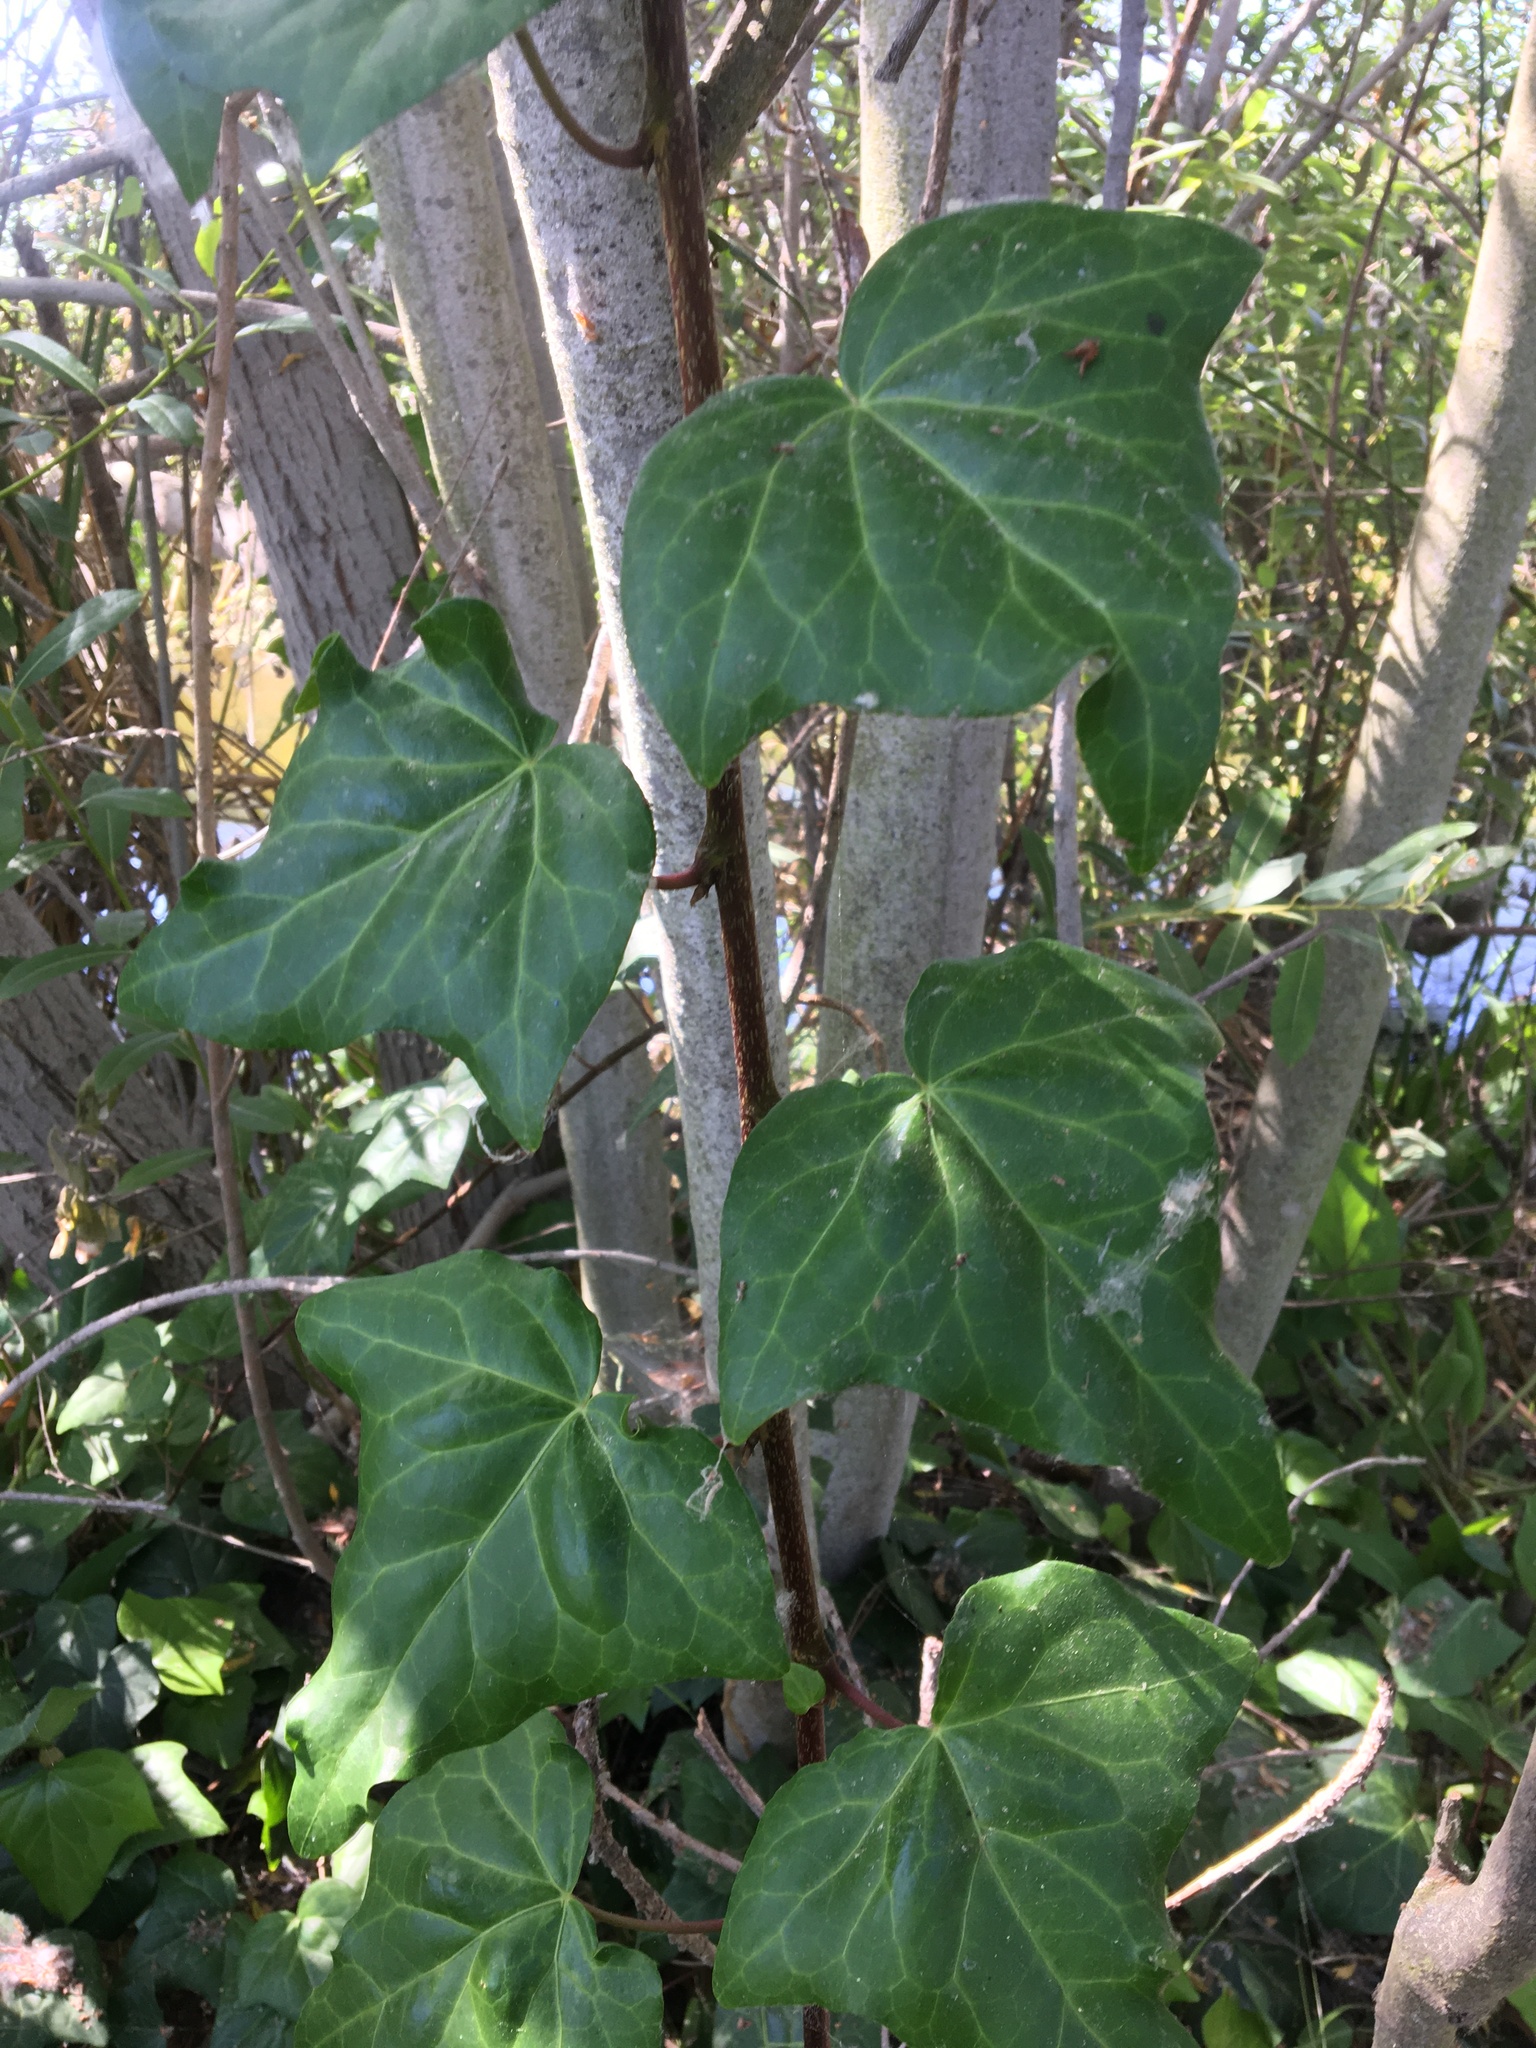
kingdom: Plantae
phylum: Tracheophyta
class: Magnoliopsida
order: Apiales
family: Araliaceae
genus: Hedera
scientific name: Hedera algeriensis
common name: Algerian ivy
